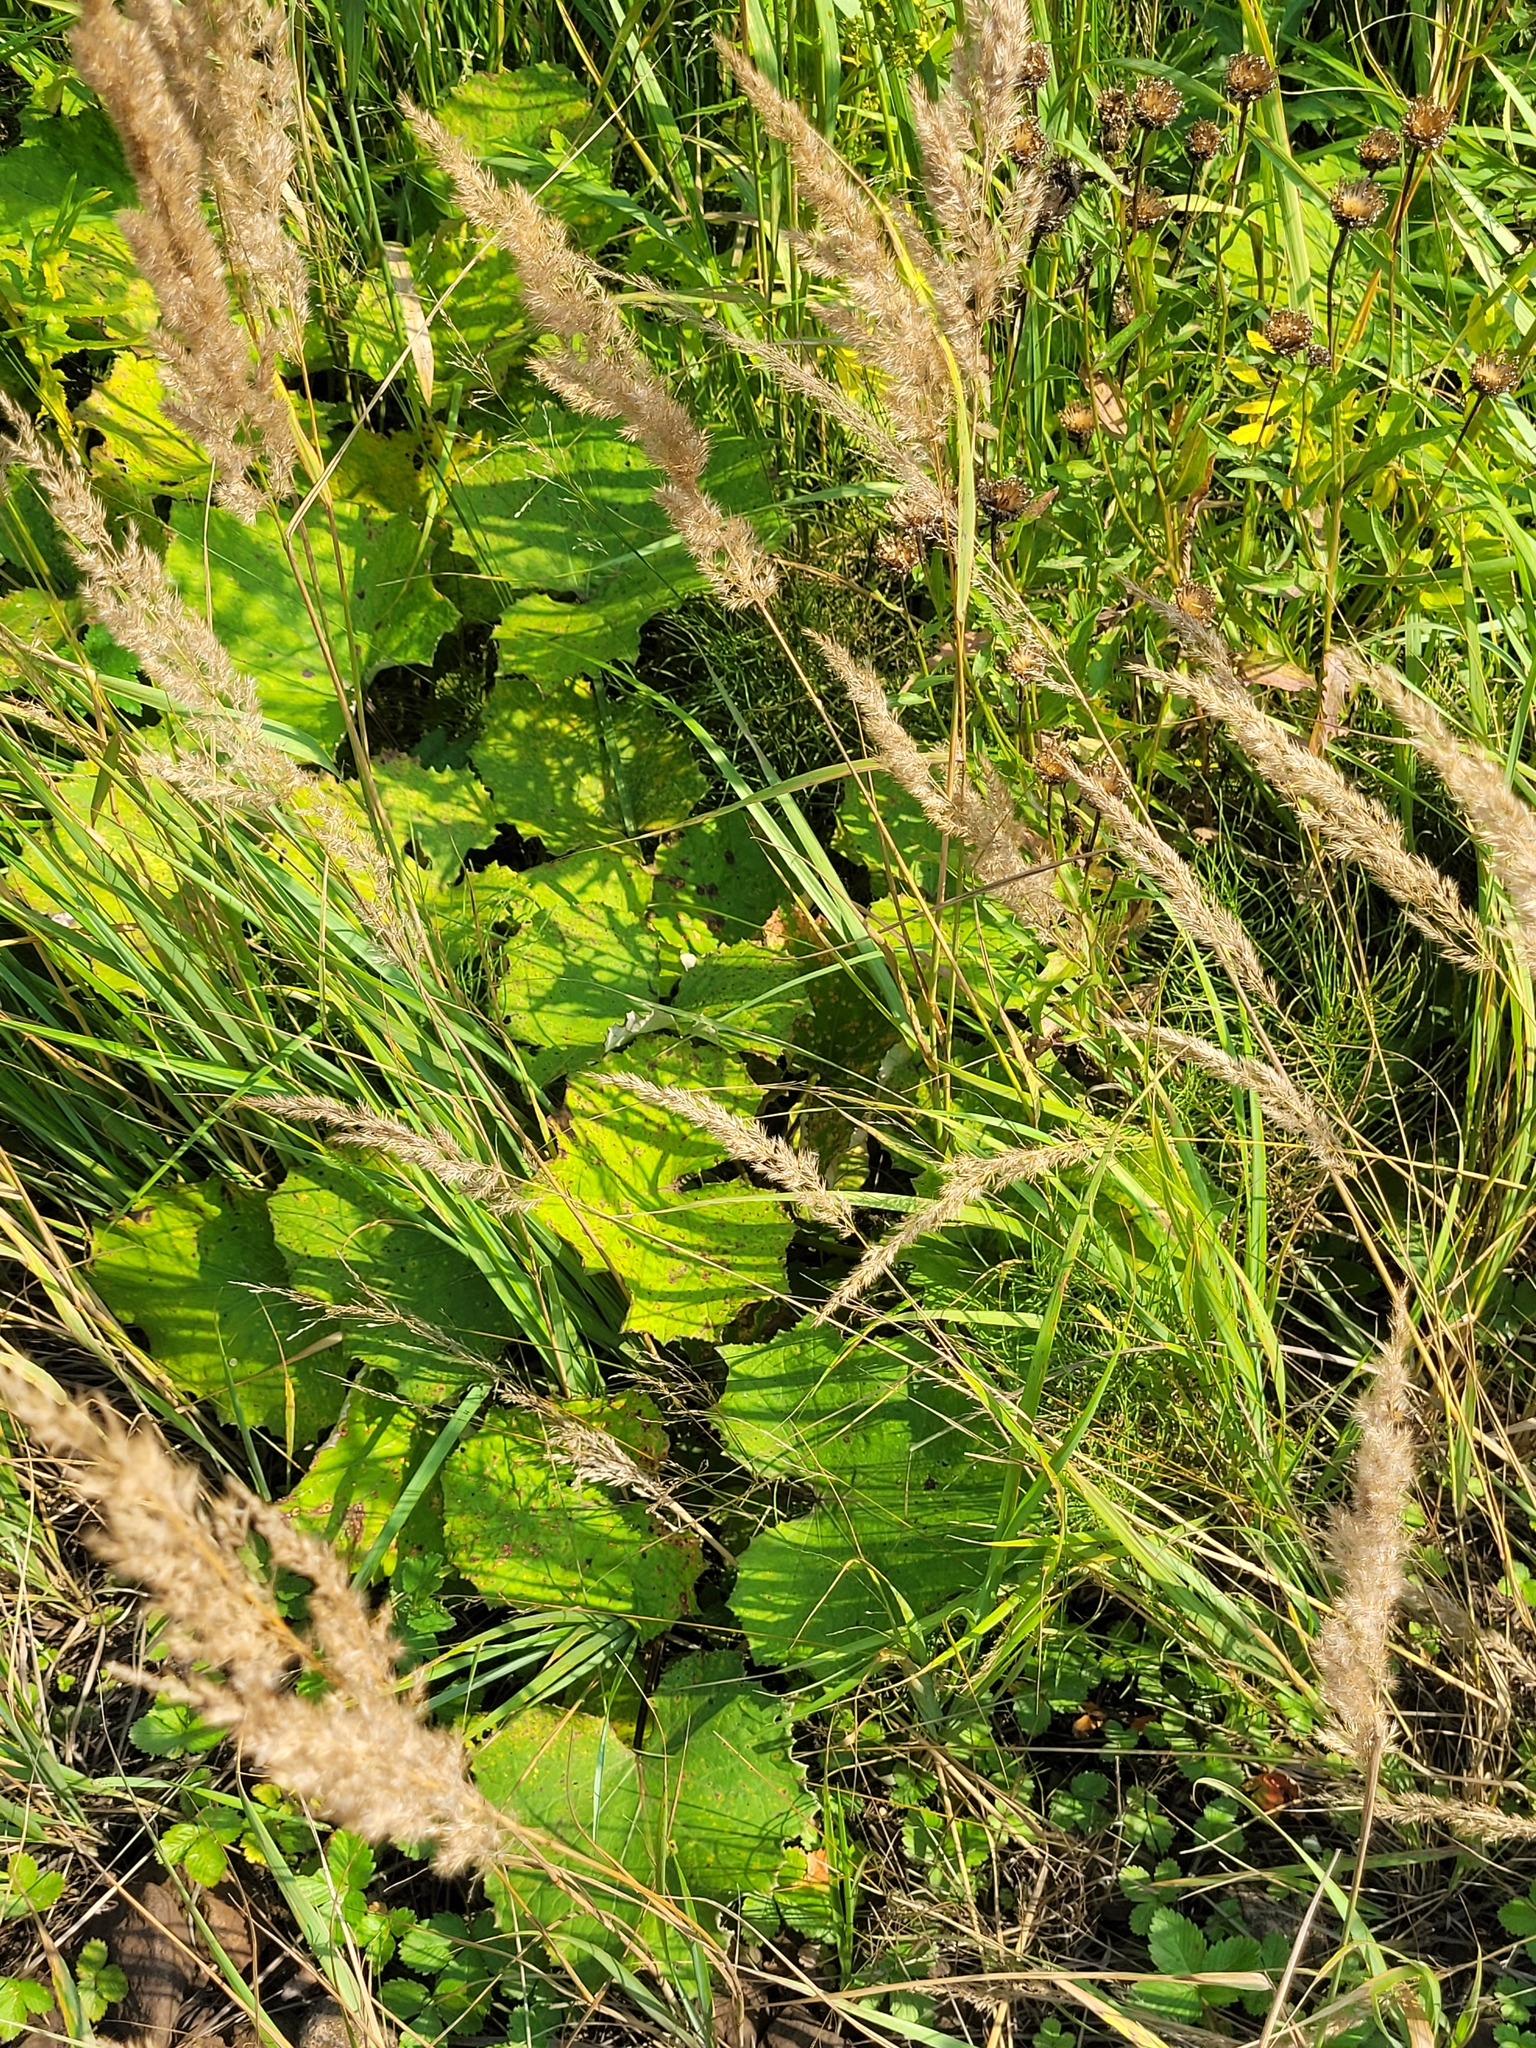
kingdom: Plantae
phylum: Tracheophyta
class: Magnoliopsida
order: Asterales
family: Asteraceae
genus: Tussilago
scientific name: Tussilago farfara
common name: Coltsfoot
